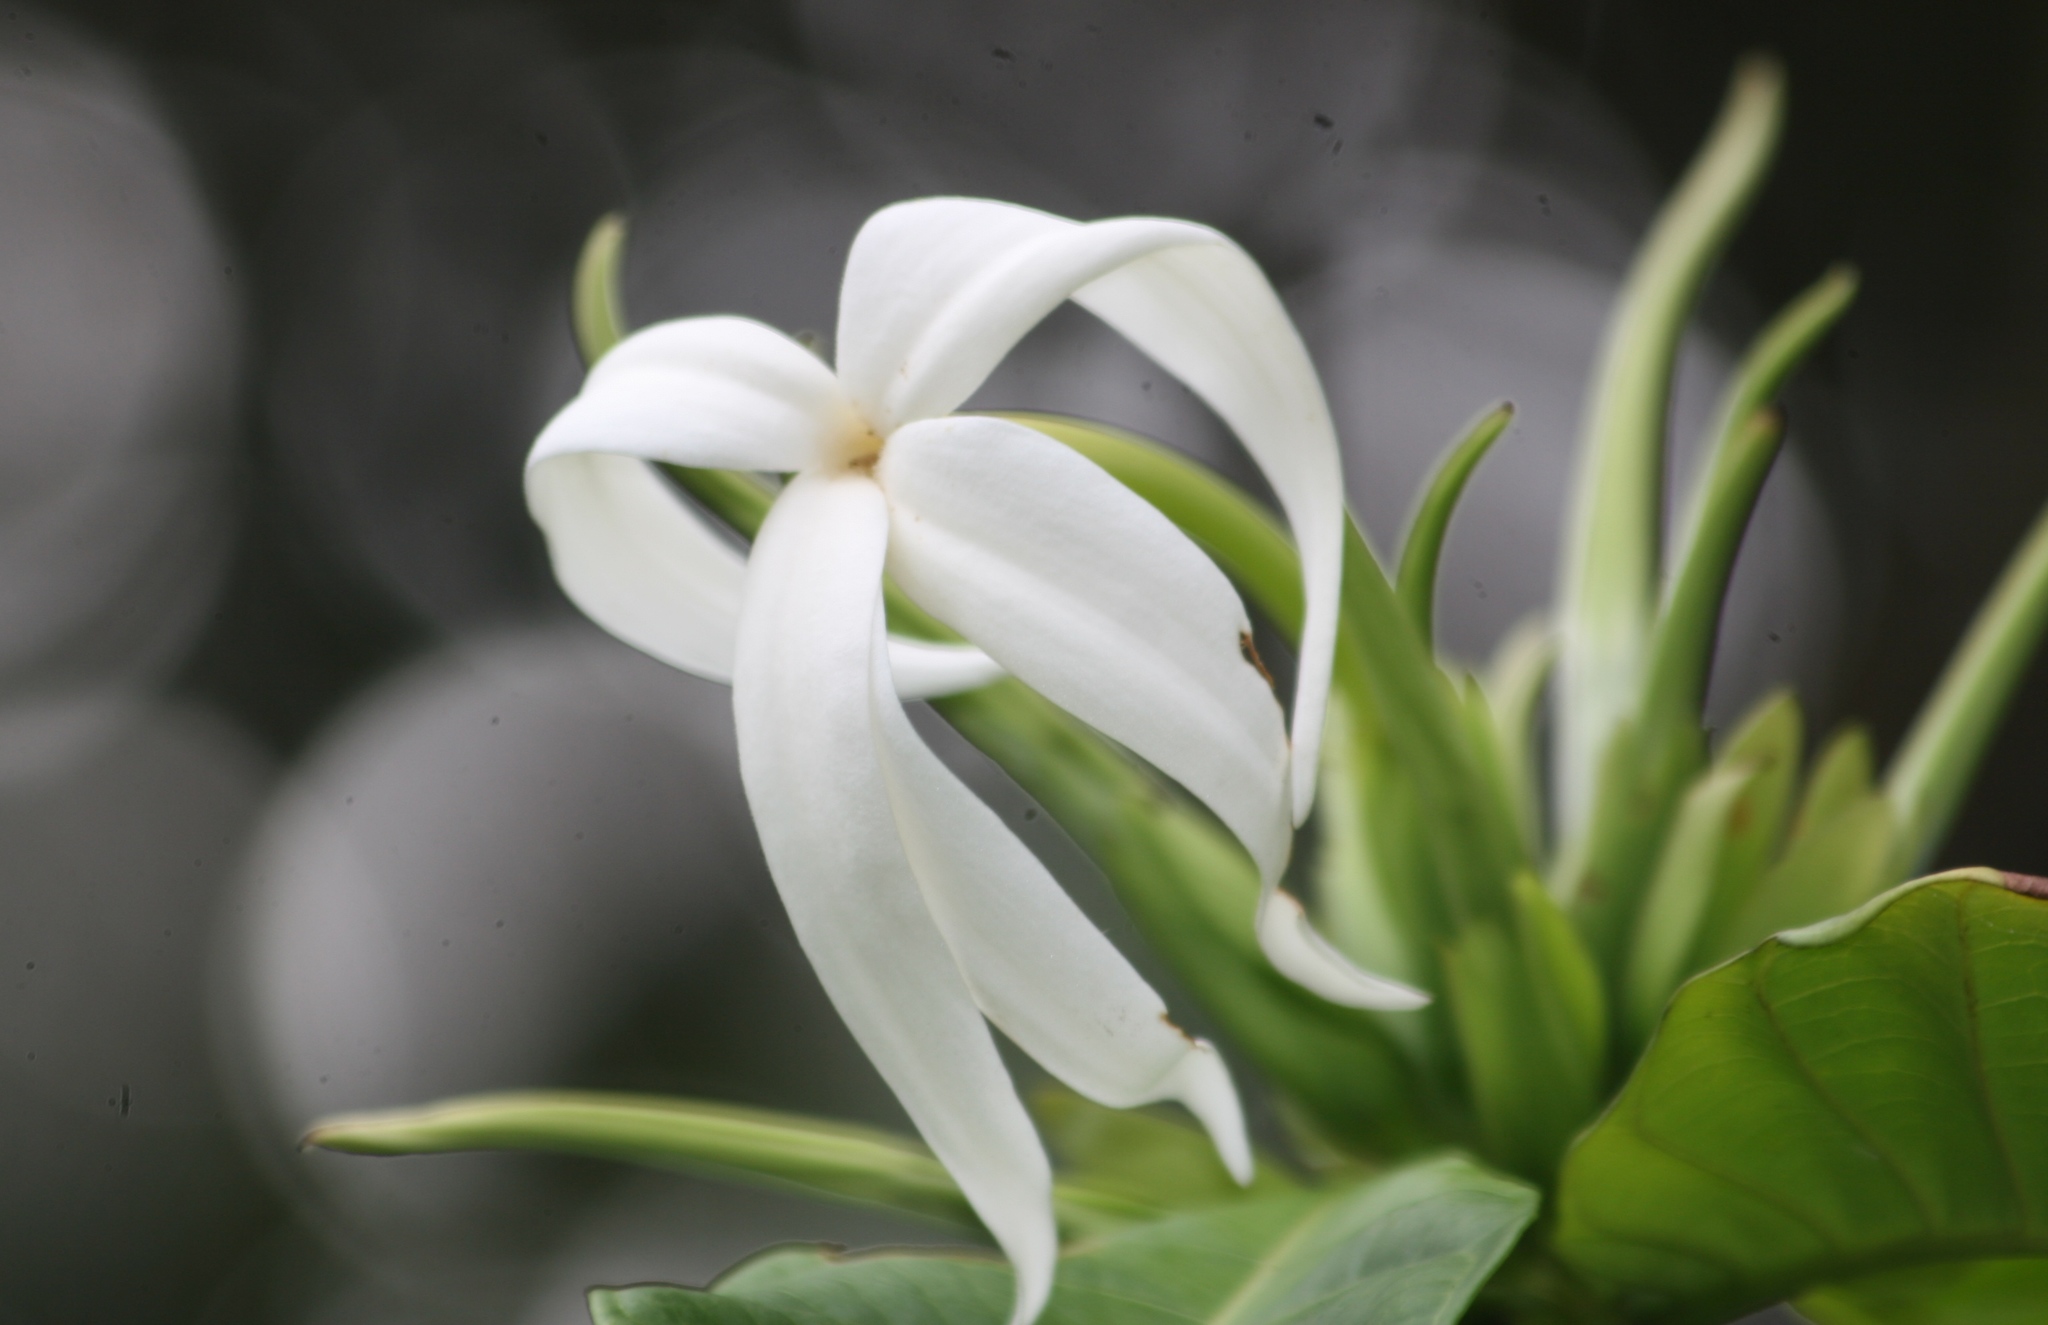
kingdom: Plantae
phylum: Tracheophyta
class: Magnoliopsida
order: Gentianales
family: Rubiaceae
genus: Leptactina
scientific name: Leptactina mannii
